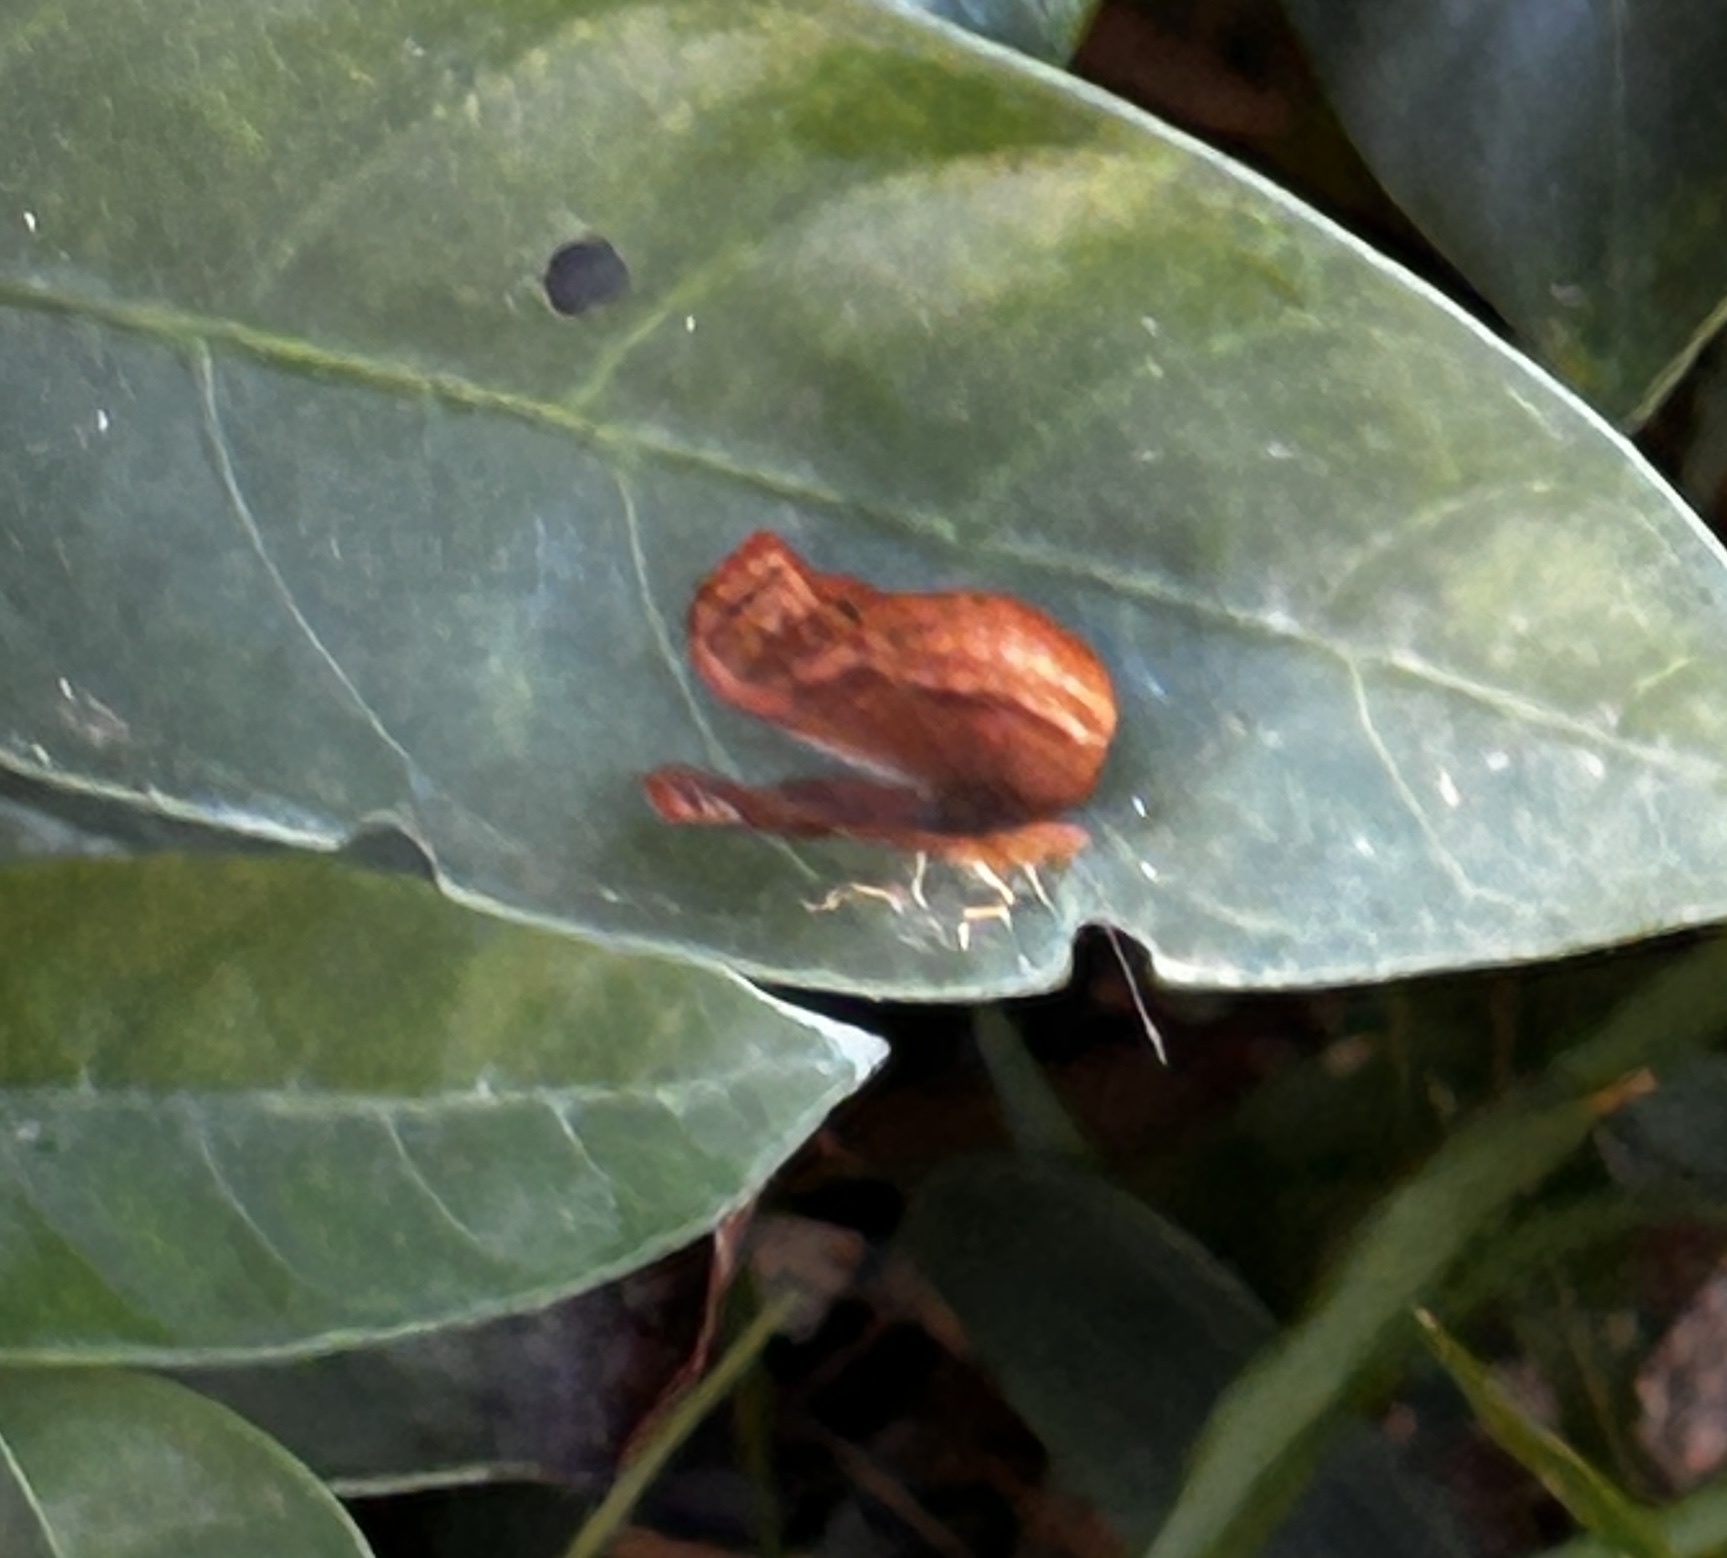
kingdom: Animalia
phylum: Arthropoda
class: Insecta
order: Lepidoptera
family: Lycaenidae
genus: Abisara
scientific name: Abisara echeria
